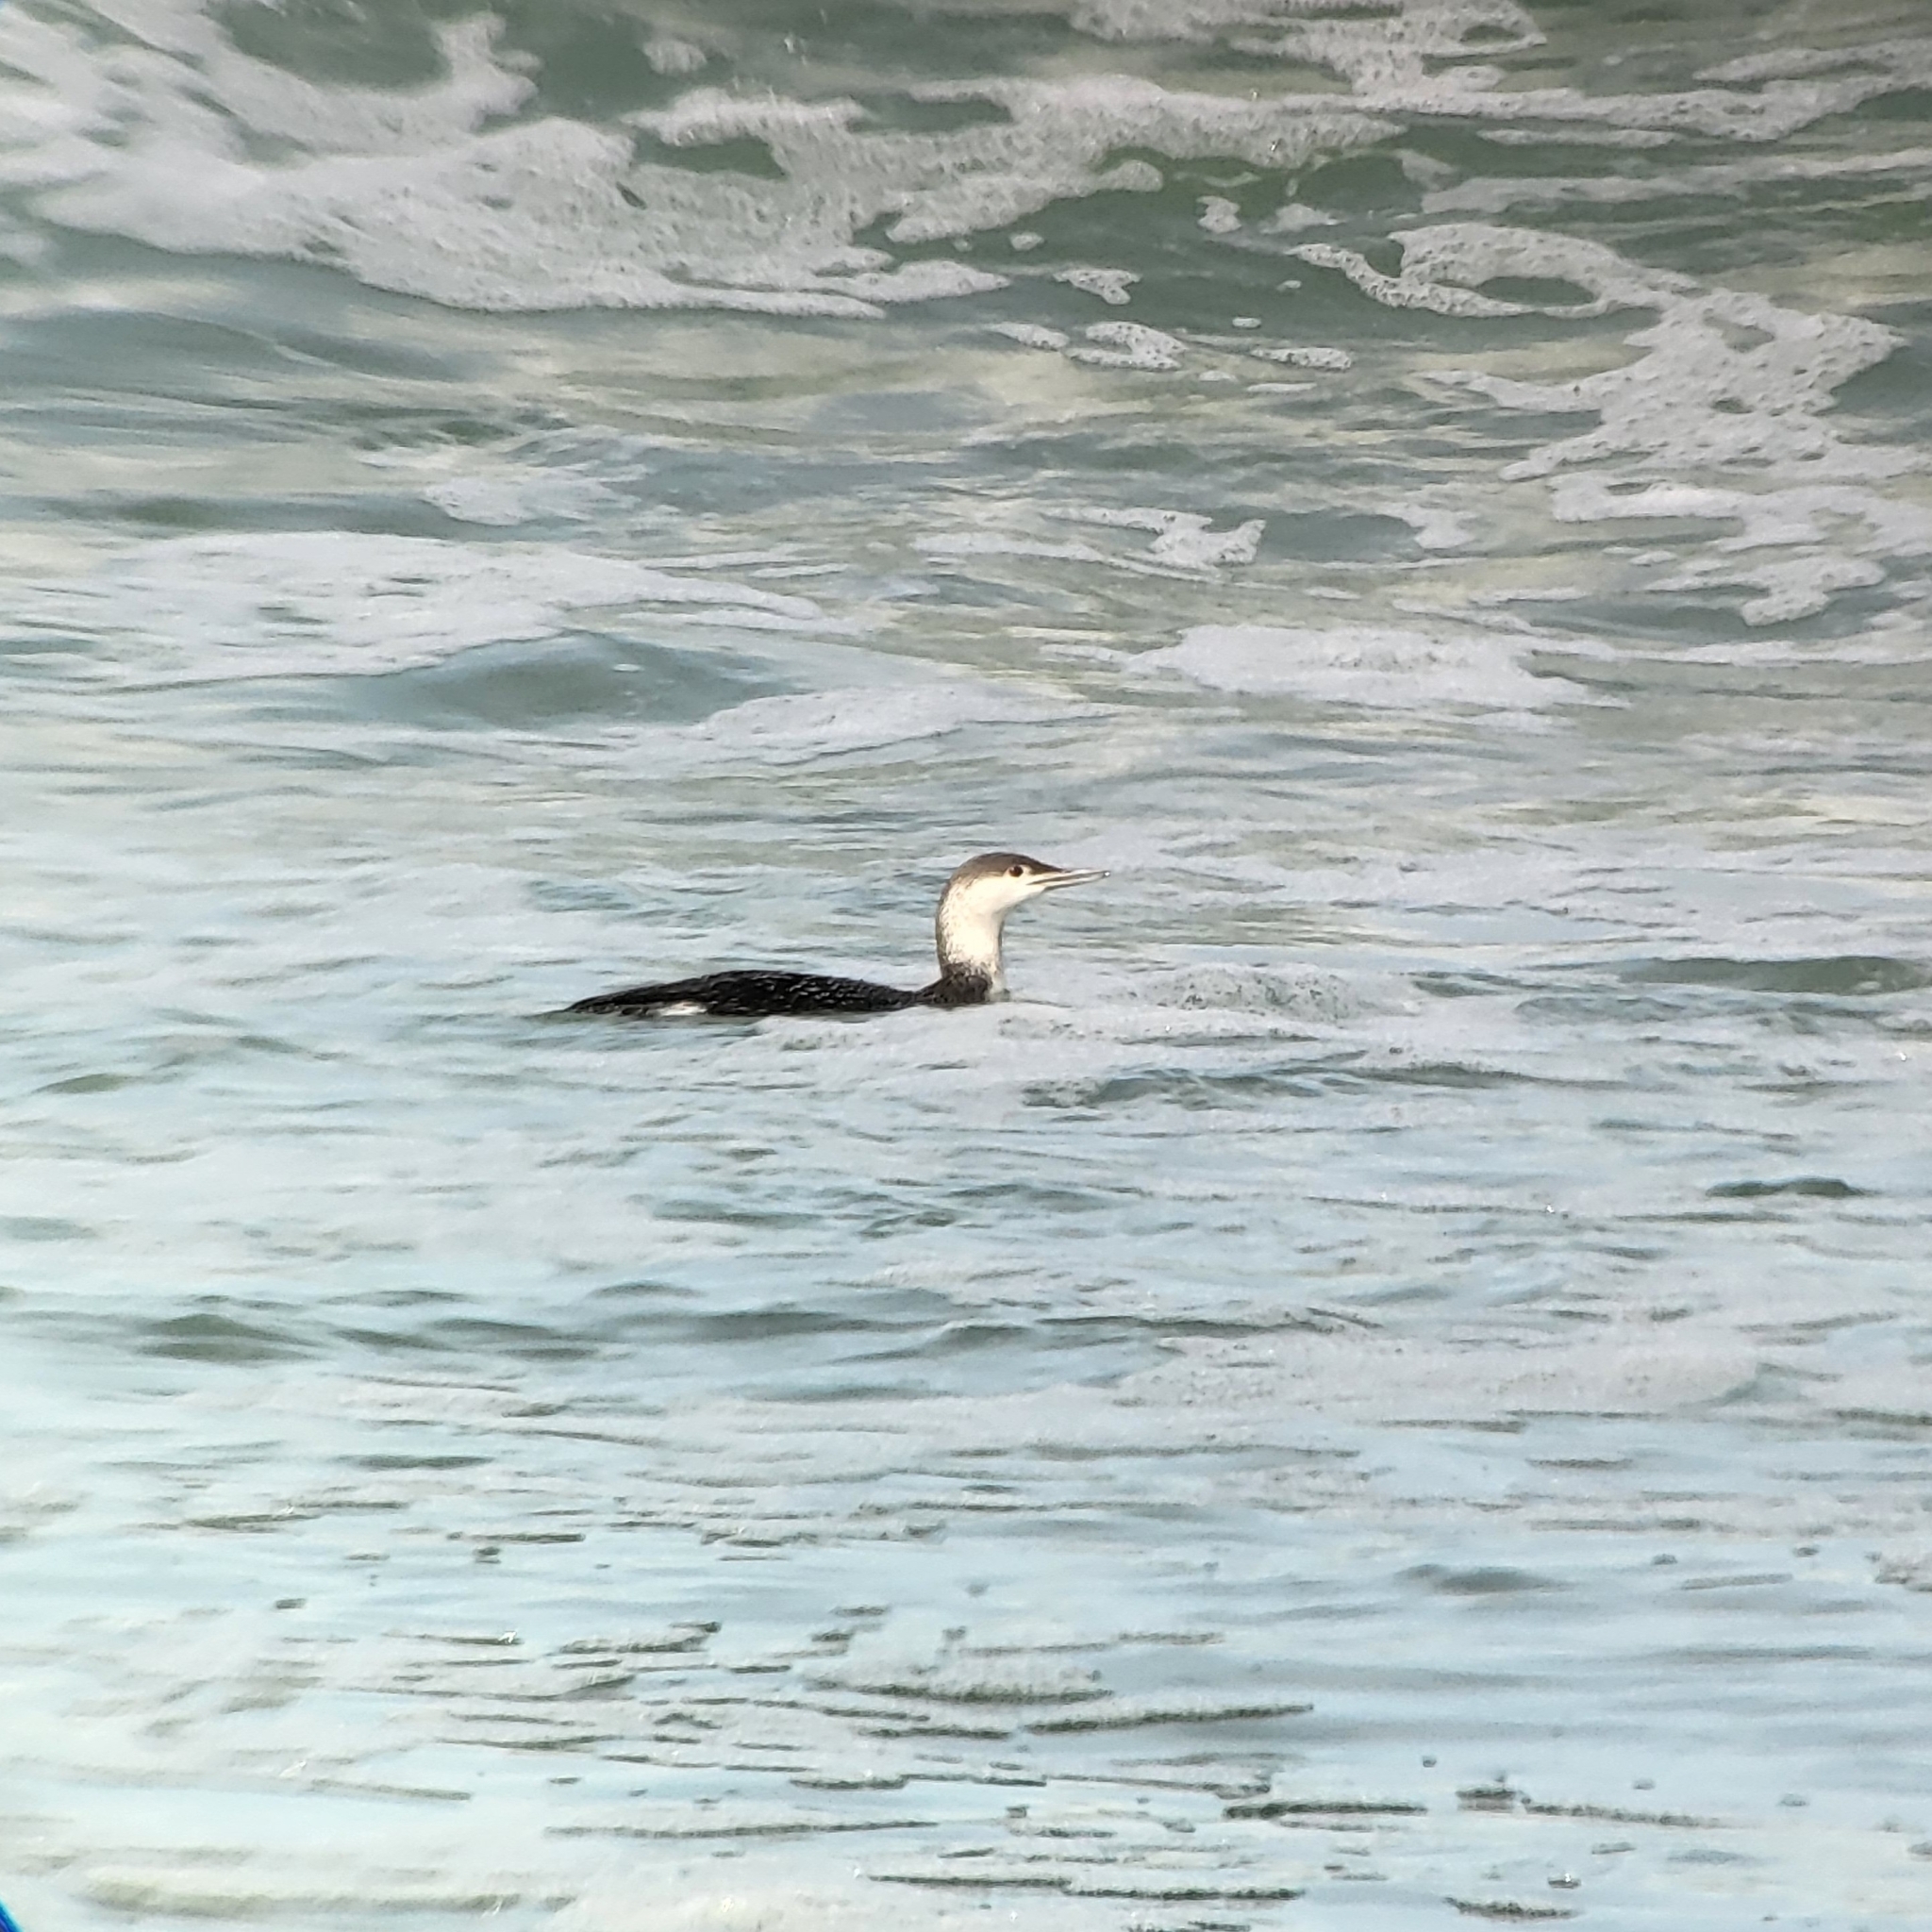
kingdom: Animalia
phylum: Chordata
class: Aves
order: Gaviiformes
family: Gaviidae
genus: Gavia
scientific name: Gavia stellata
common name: Red-throated loon
